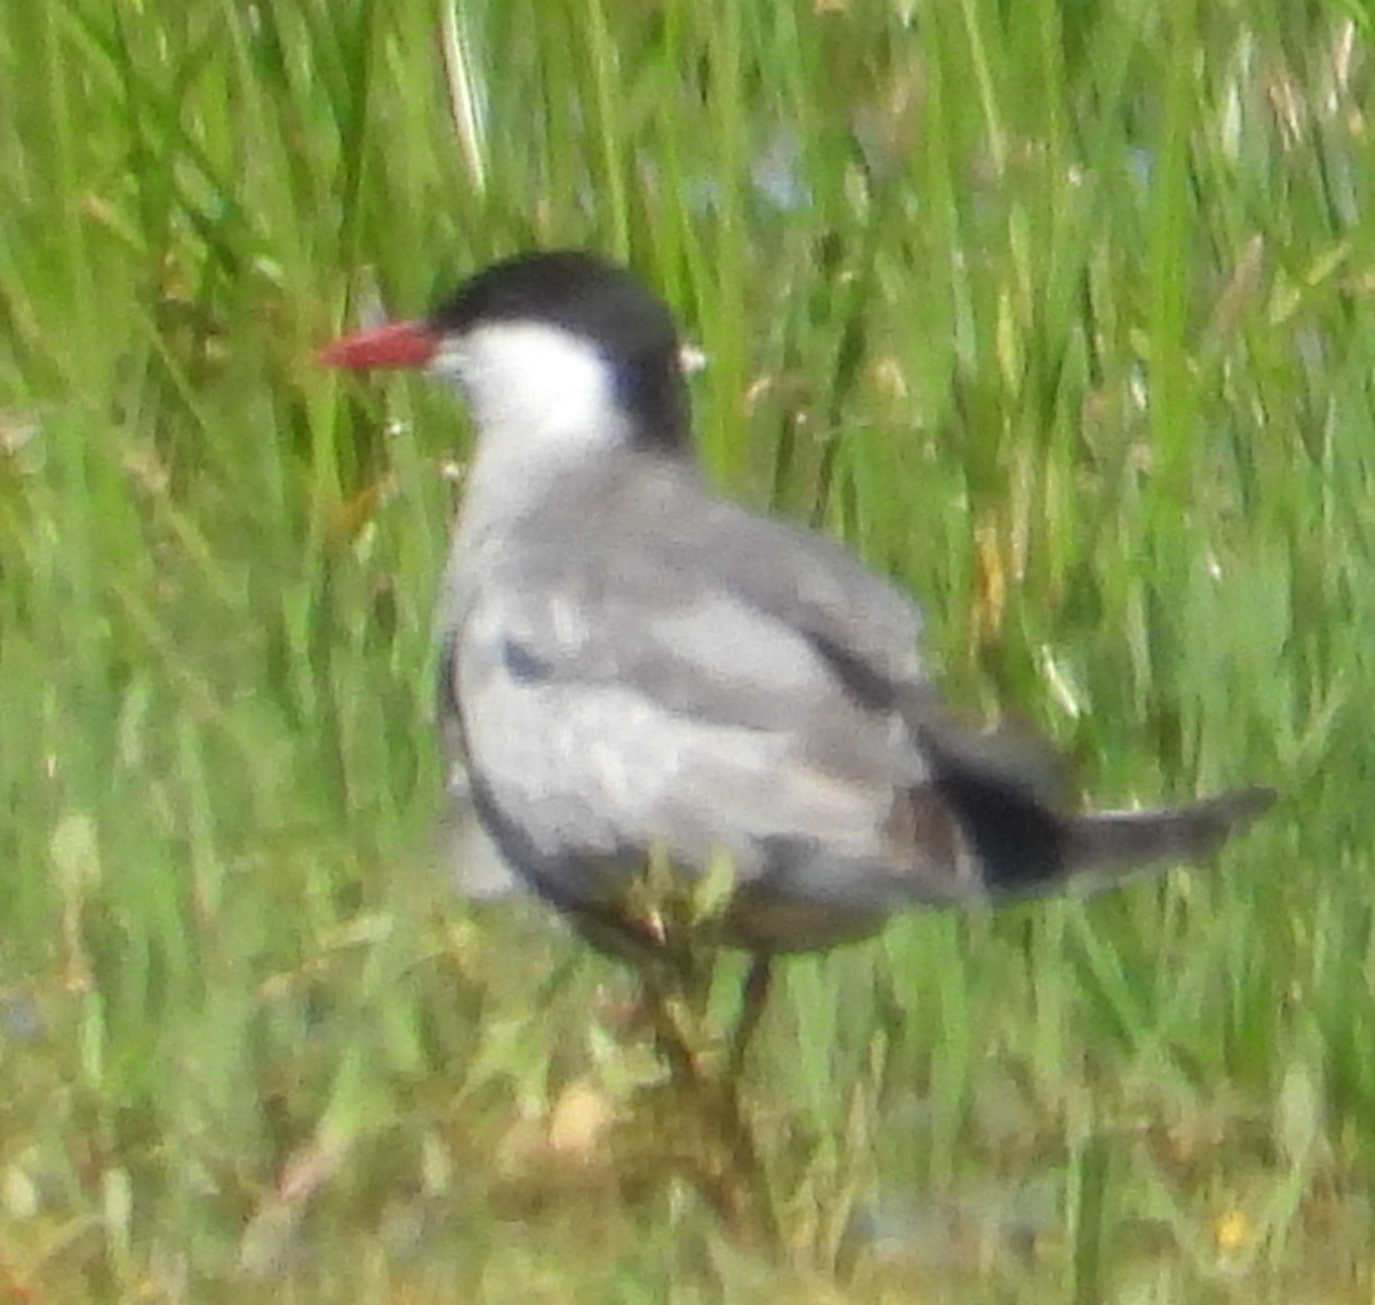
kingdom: Animalia
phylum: Chordata
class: Aves
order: Charadriiformes
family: Laridae
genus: Chlidonias
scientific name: Chlidonias hybrida
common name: Whiskered tern
